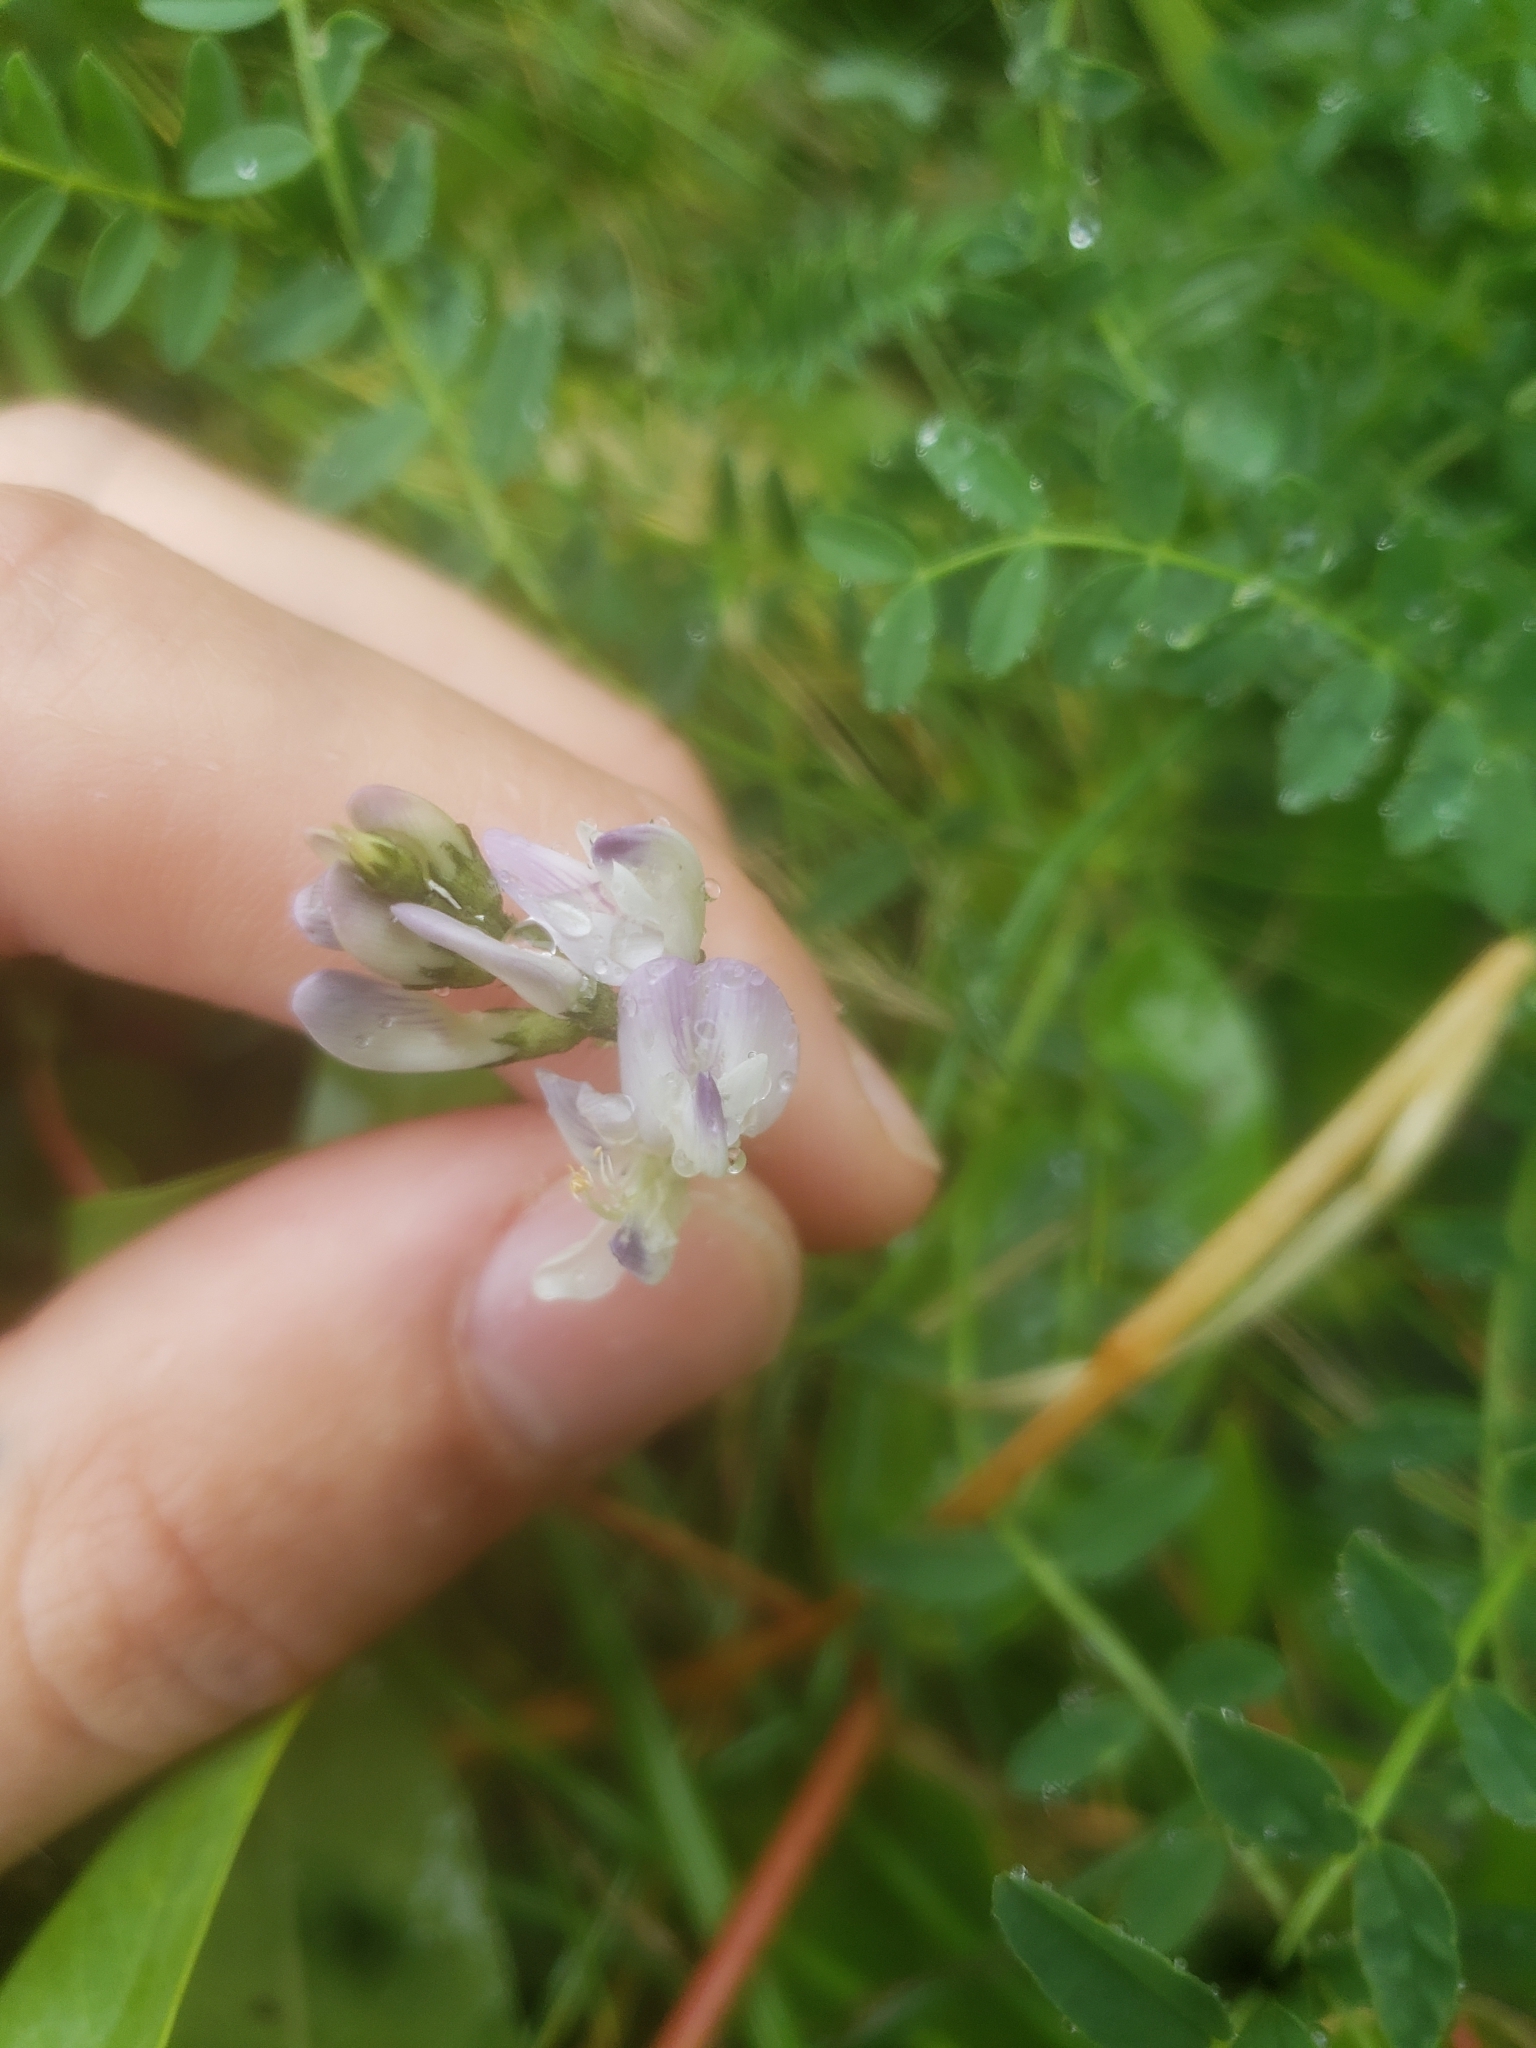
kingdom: Plantae
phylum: Tracheophyta
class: Magnoliopsida
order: Fabales
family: Fabaceae
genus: Astragalus
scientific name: Astragalus alpinus
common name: Alpine milk-vetch
